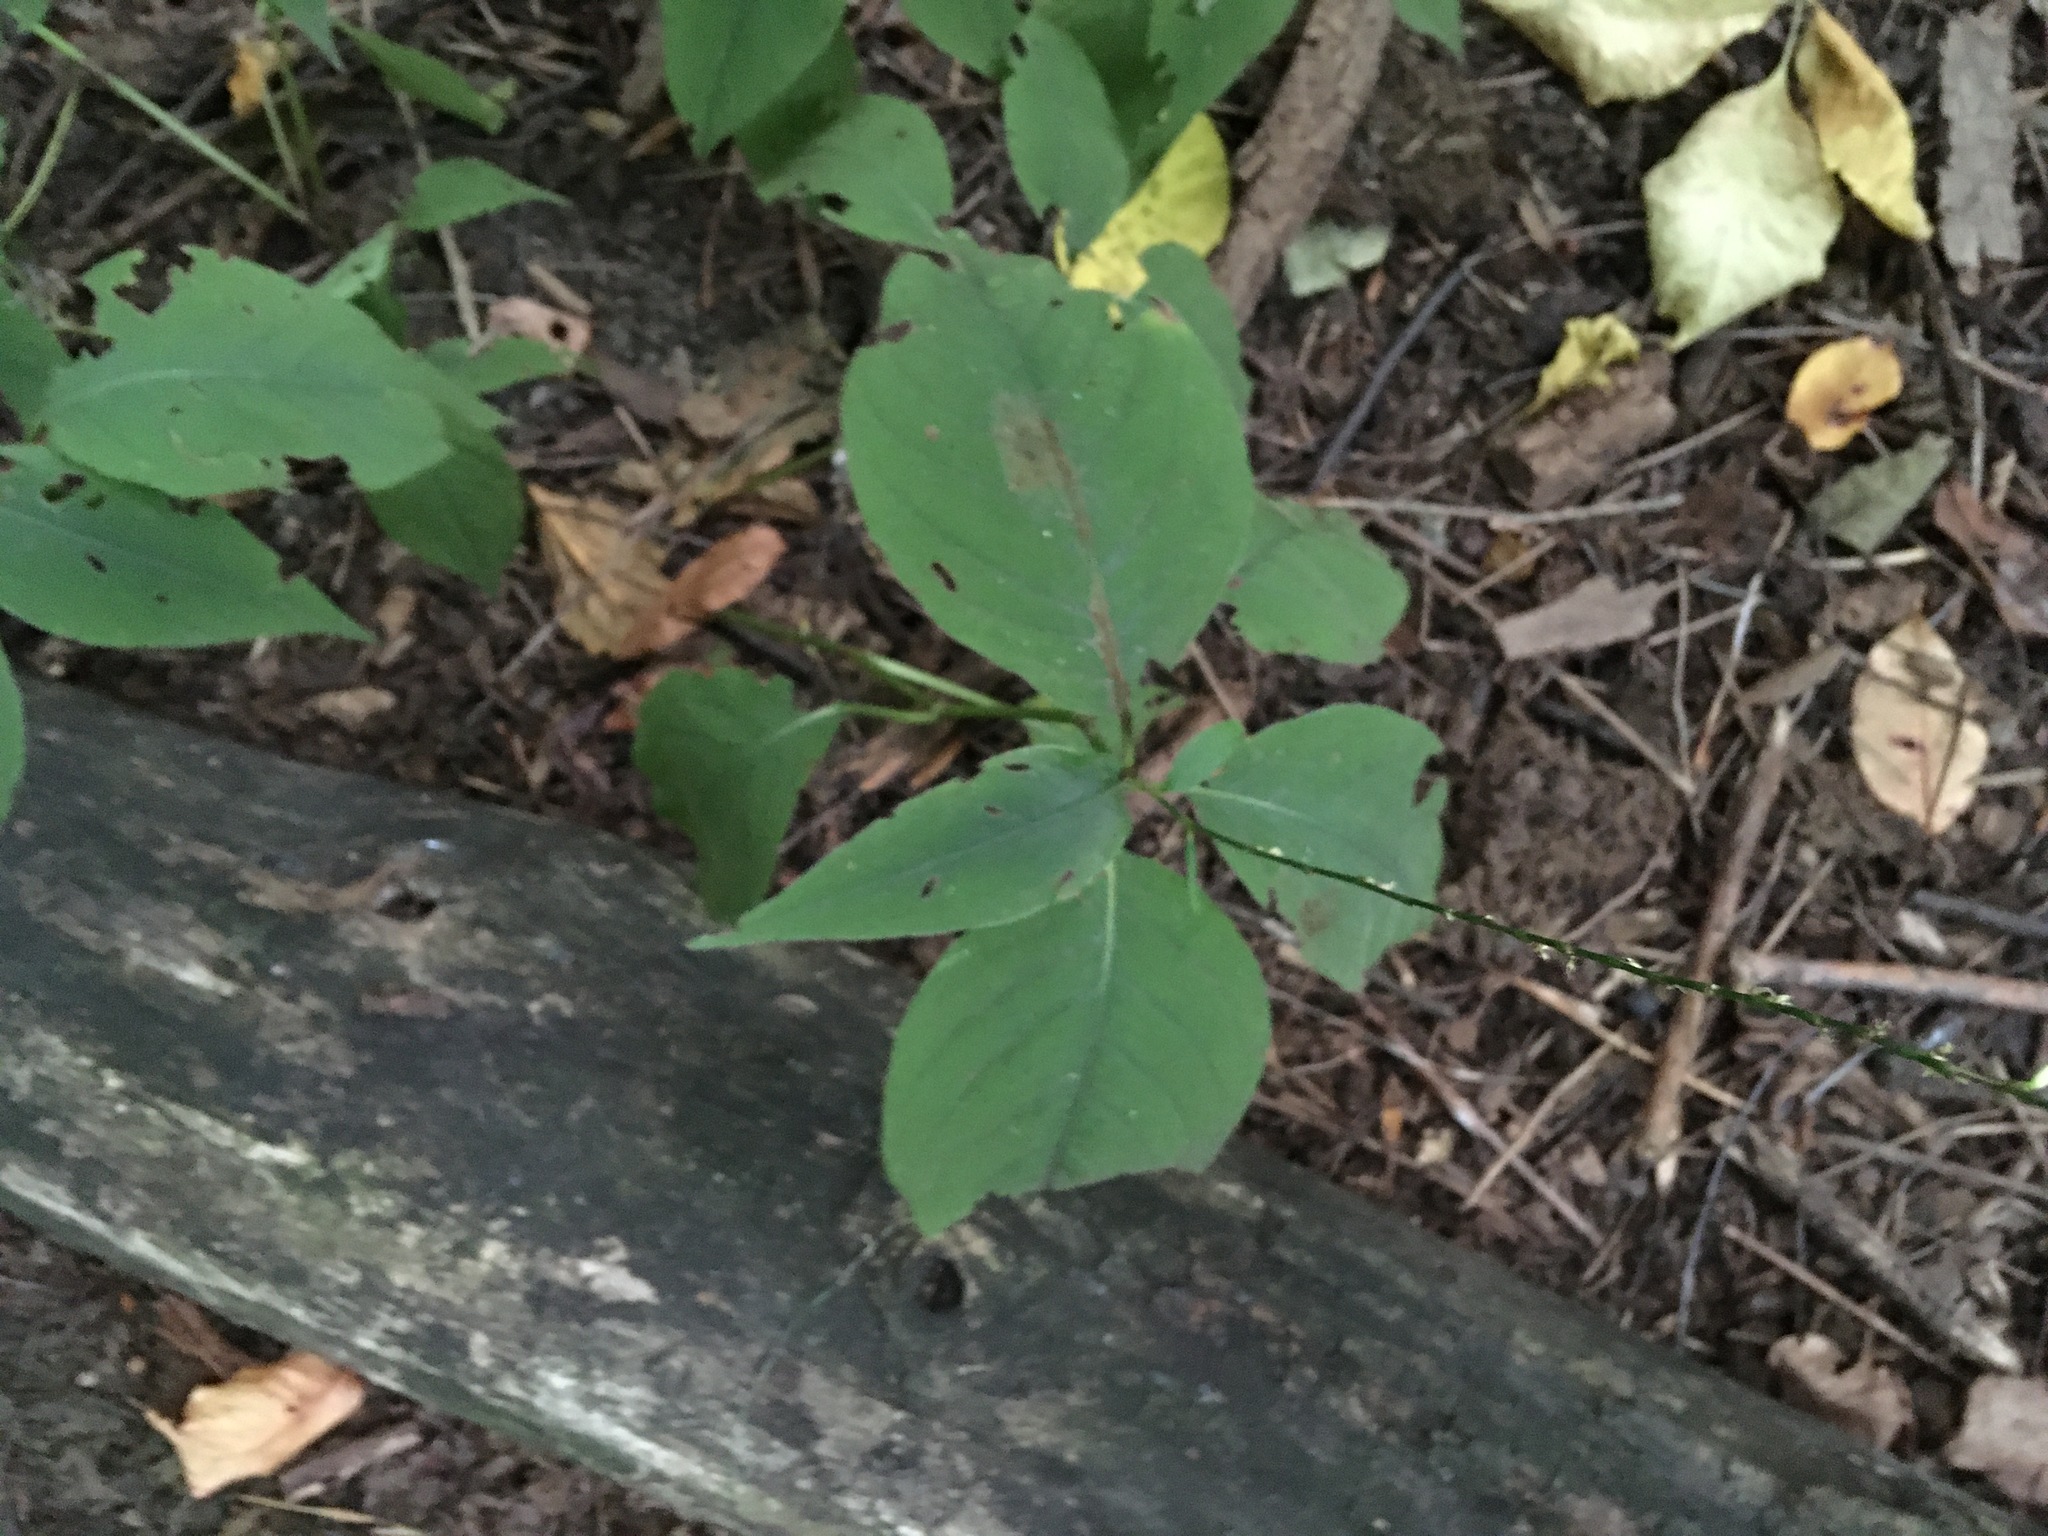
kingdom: Plantae
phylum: Tracheophyta
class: Magnoliopsida
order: Caryophyllales
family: Polygonaceae
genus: Persicaria
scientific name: Persicaria virginiana
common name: Jumpseed
